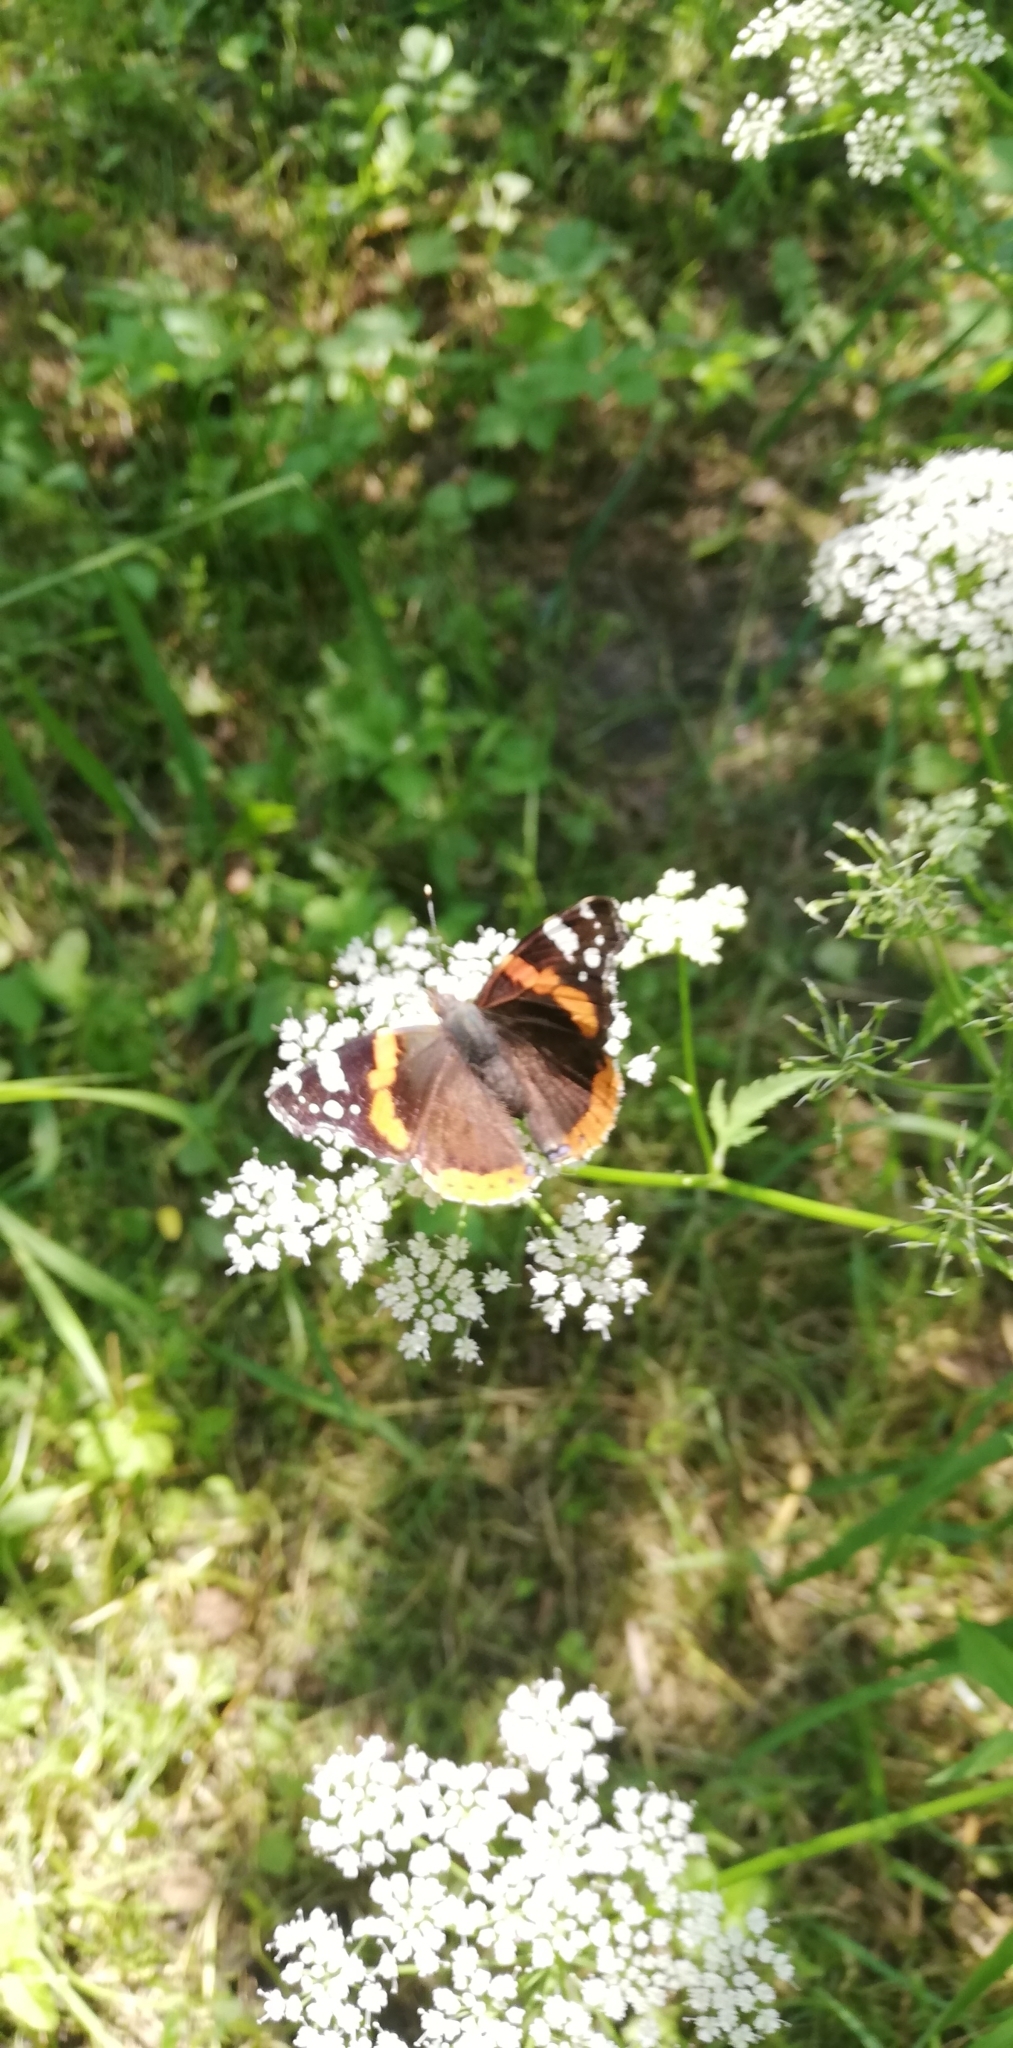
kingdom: Animalia
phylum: Arthropoda
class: Insecta
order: Lepidoptera
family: Nymphalidae
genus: Vanessa
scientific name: Vanessa atalanta
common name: Red admiral
